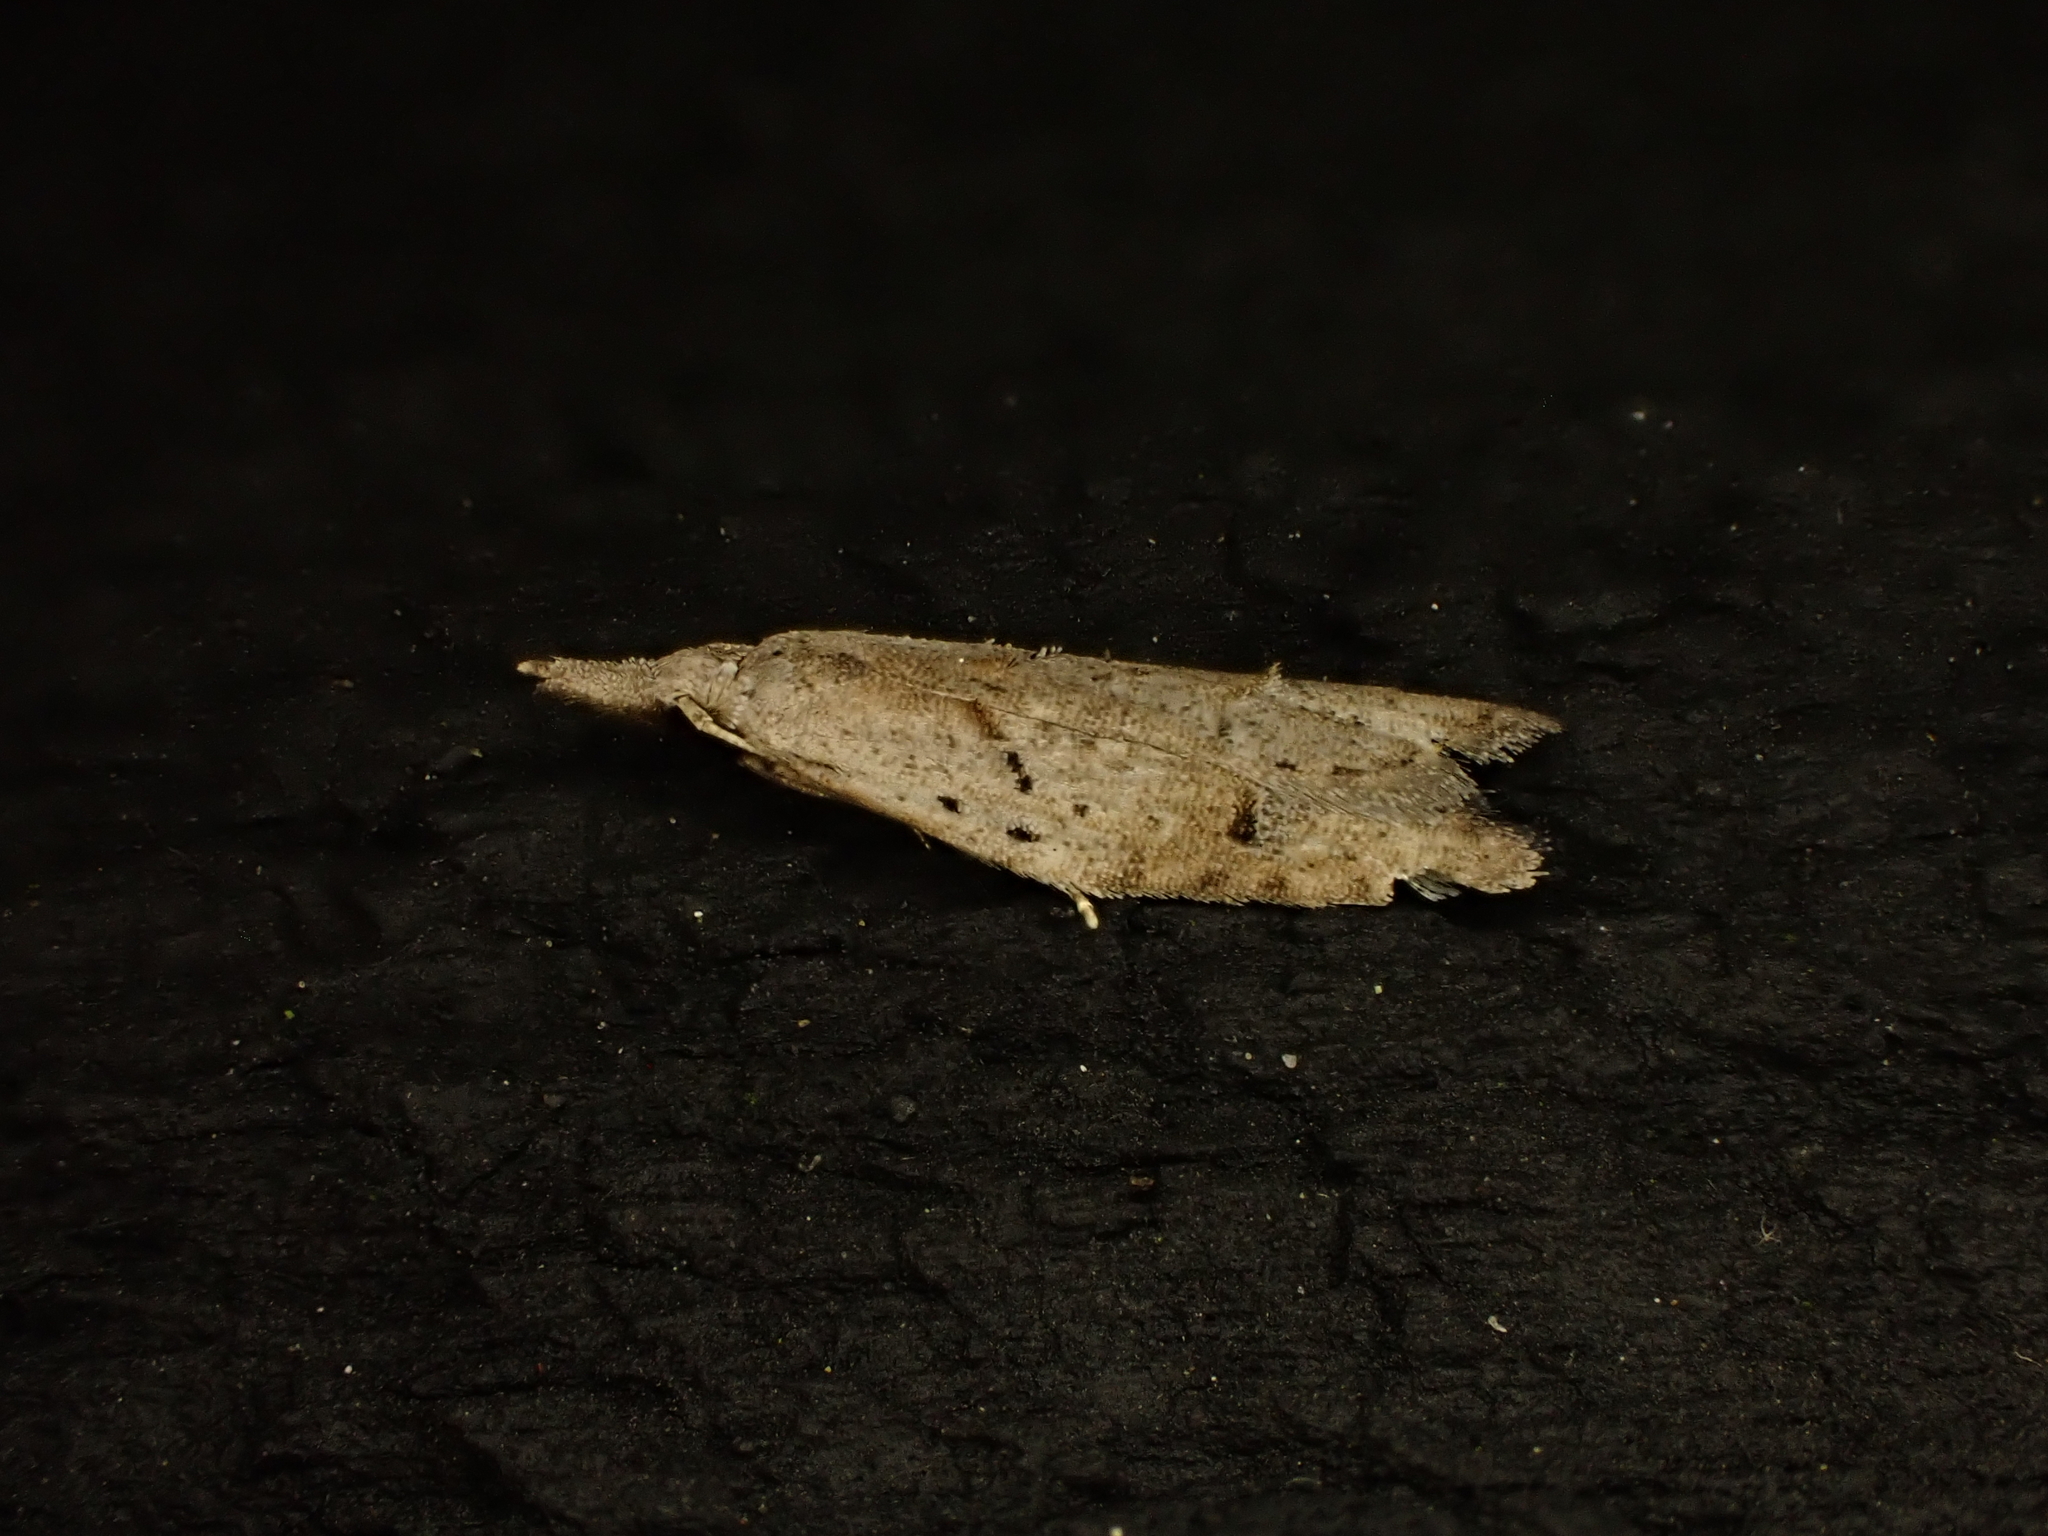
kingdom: Animalia
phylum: Arthropoda
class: Insecta
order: Lepidoptera
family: Carposinidae
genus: Carposina
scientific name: Carposina rubophaga
